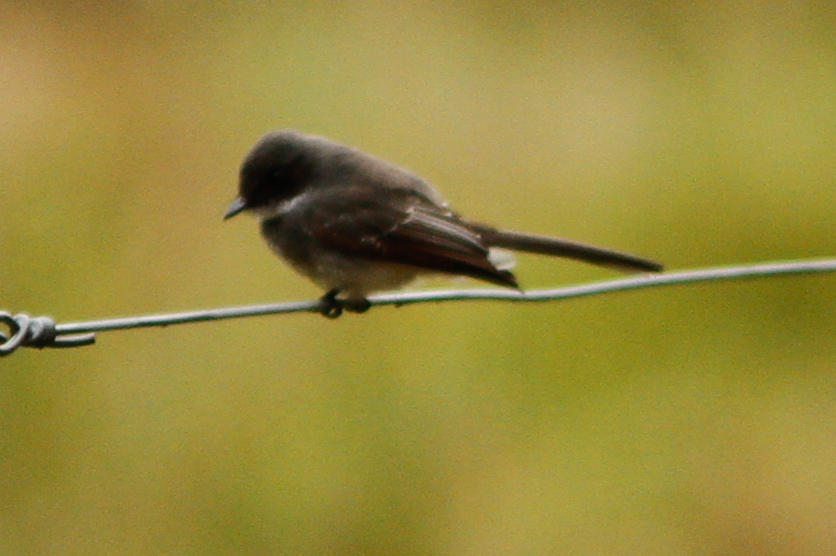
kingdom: Animalia
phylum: Chordata
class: Aves
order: Passeriformes
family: Rhipiduridae
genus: Rhipidura
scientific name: Rhipidura rufiventris
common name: Northern fantail
